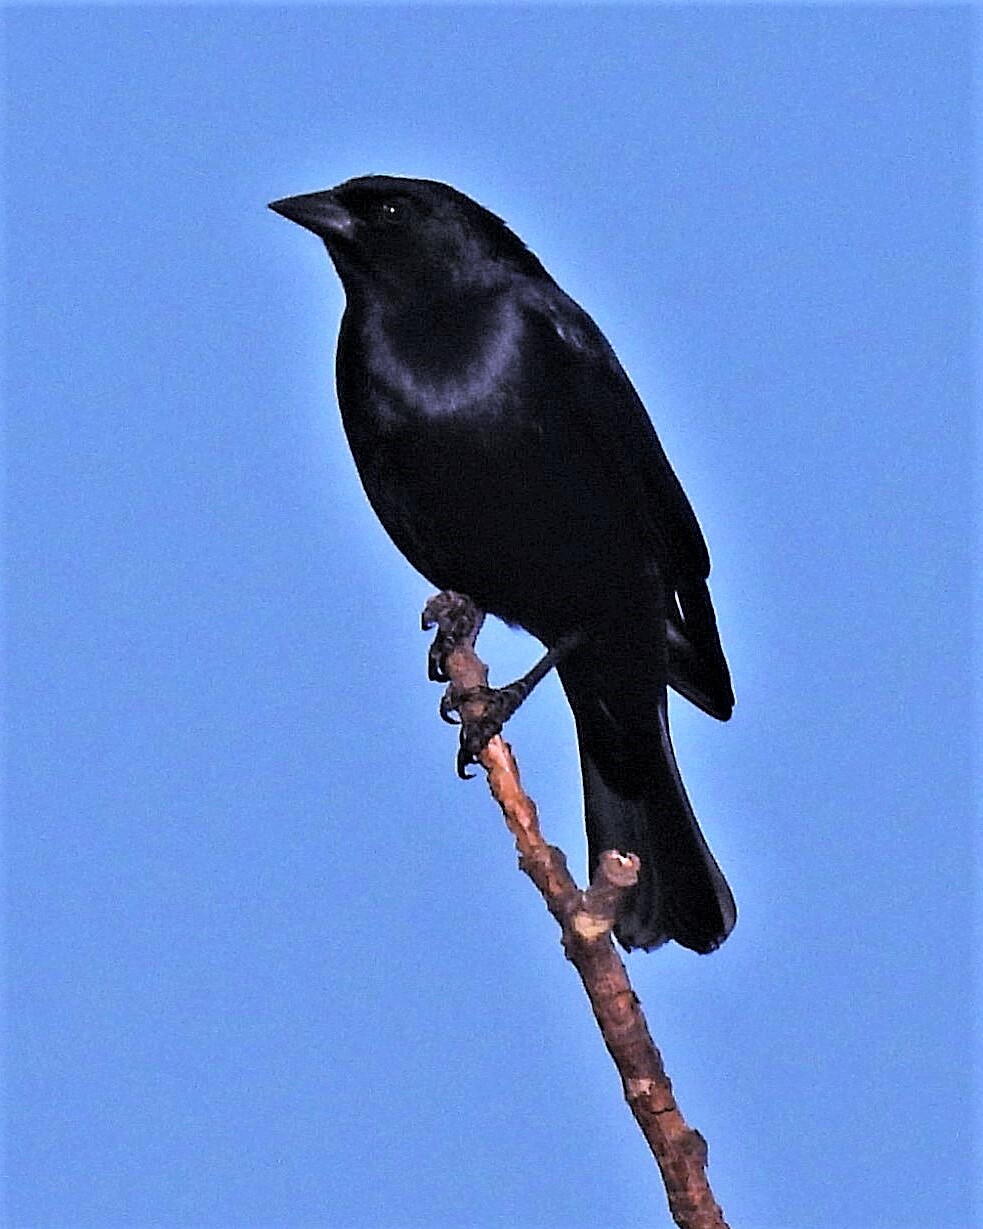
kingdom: Animalia
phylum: Chordata
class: Aves
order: Passeriformes
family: Icteridae
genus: Molothrus
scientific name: Molothrus bonariensis
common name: Shiny cowbird
